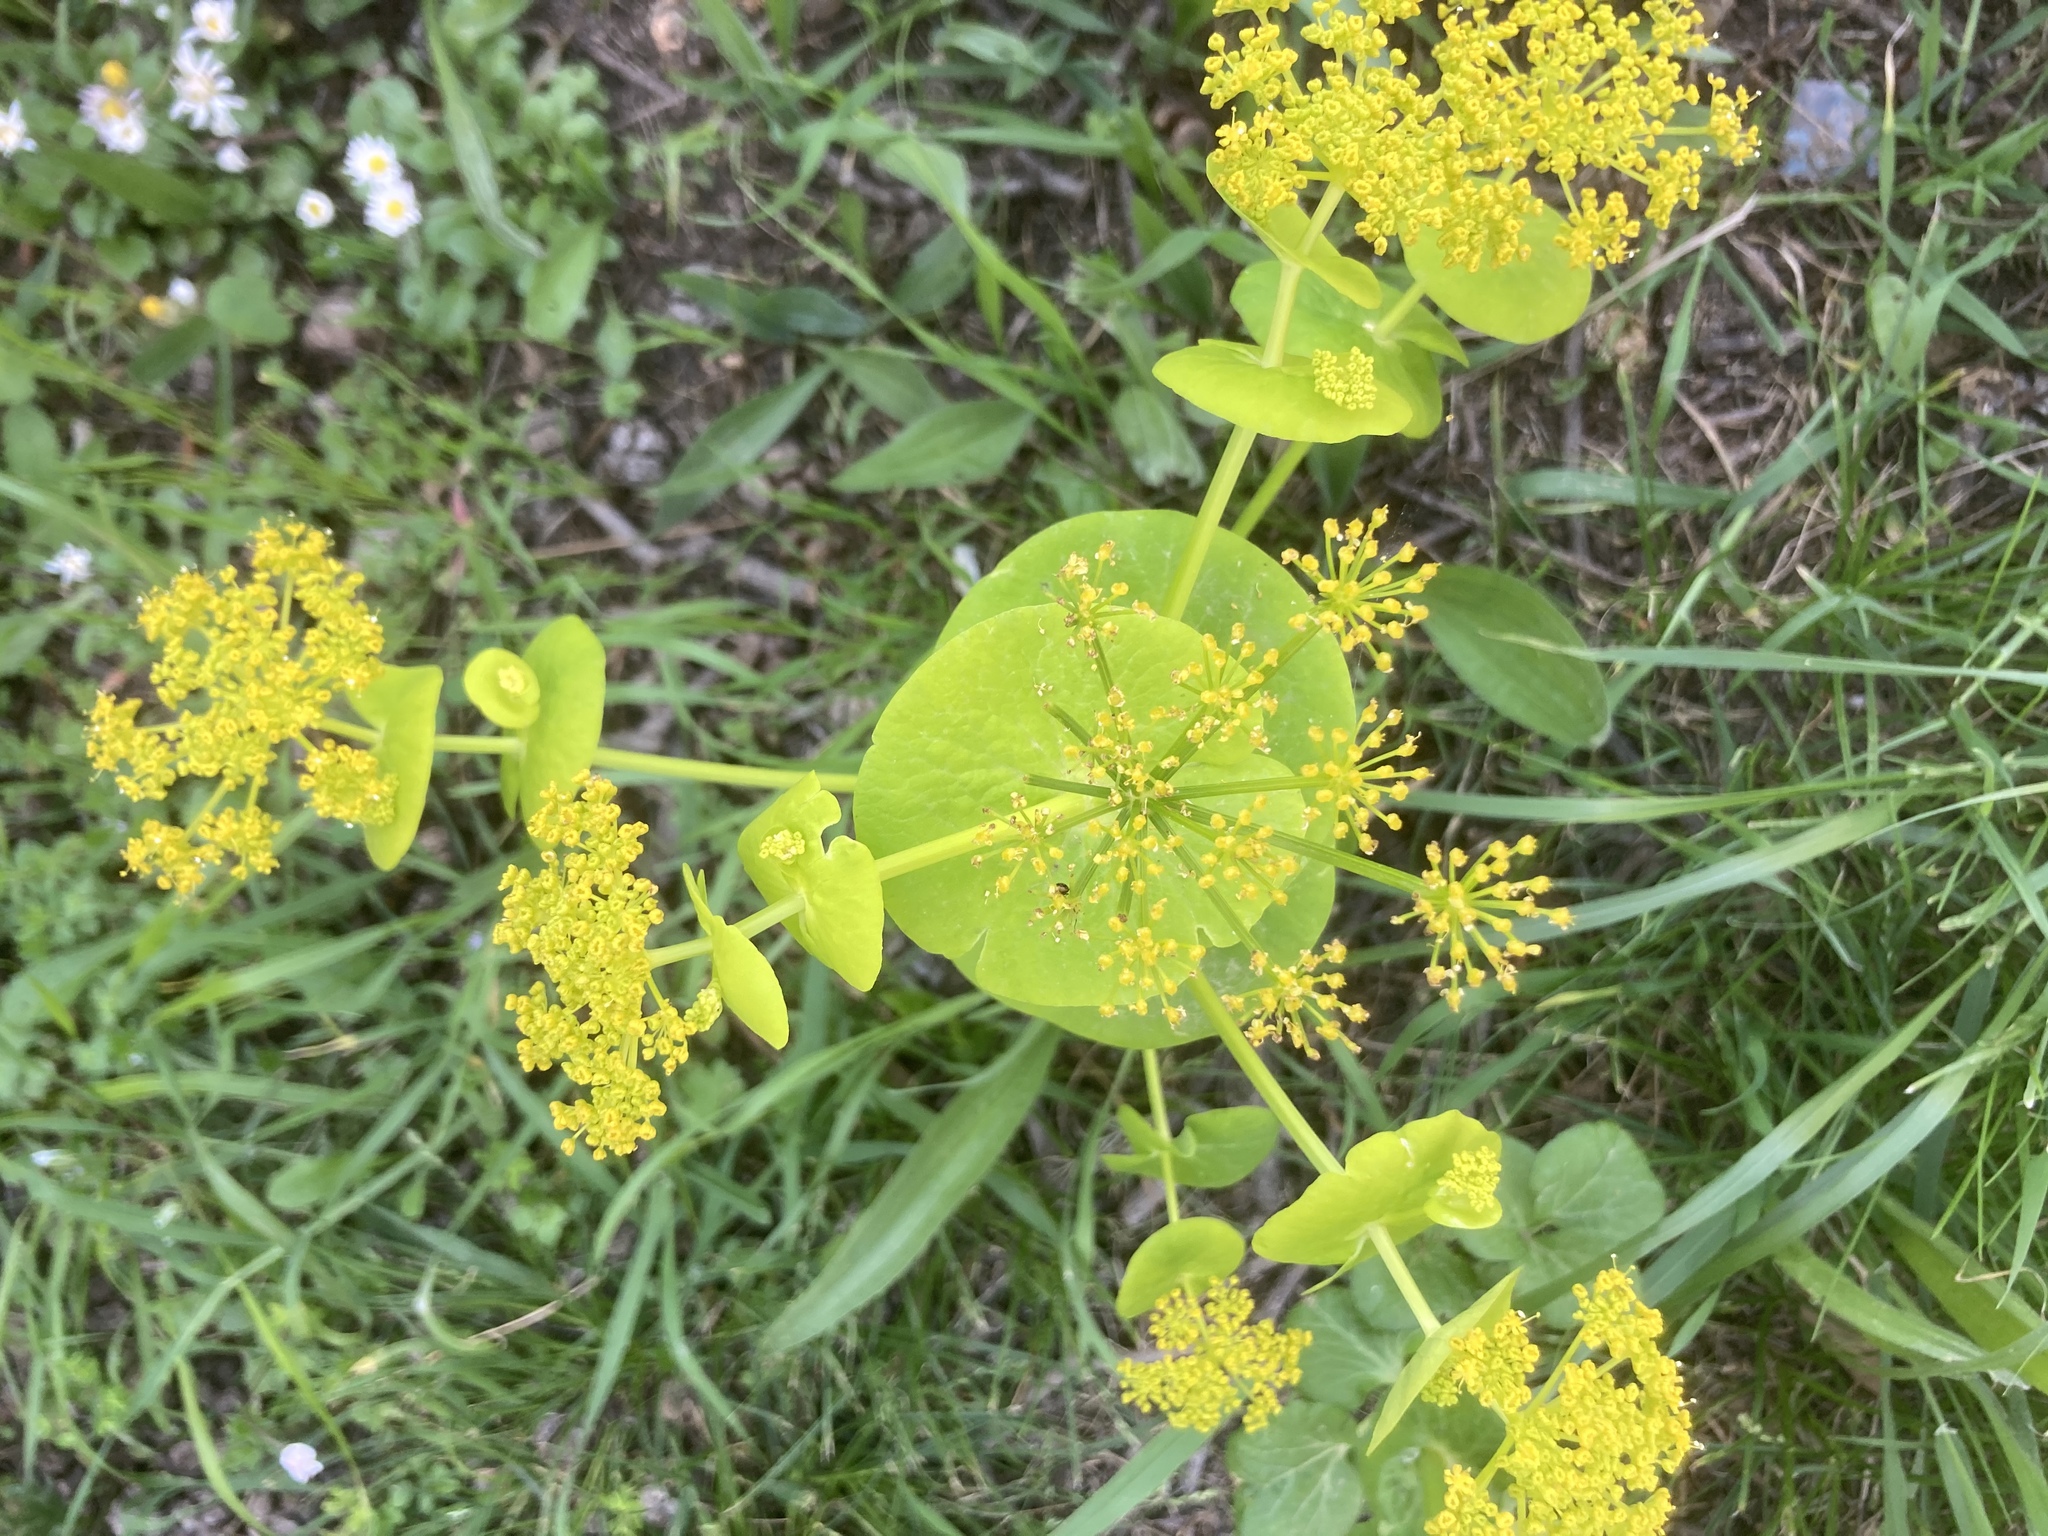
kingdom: Plantae
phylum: Tracheophyta
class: Magnoliopsida
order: Apiales
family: Apiaceae
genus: Smyrnium
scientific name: Smyrnium perfoliatum
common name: Perfoliate alexanders
